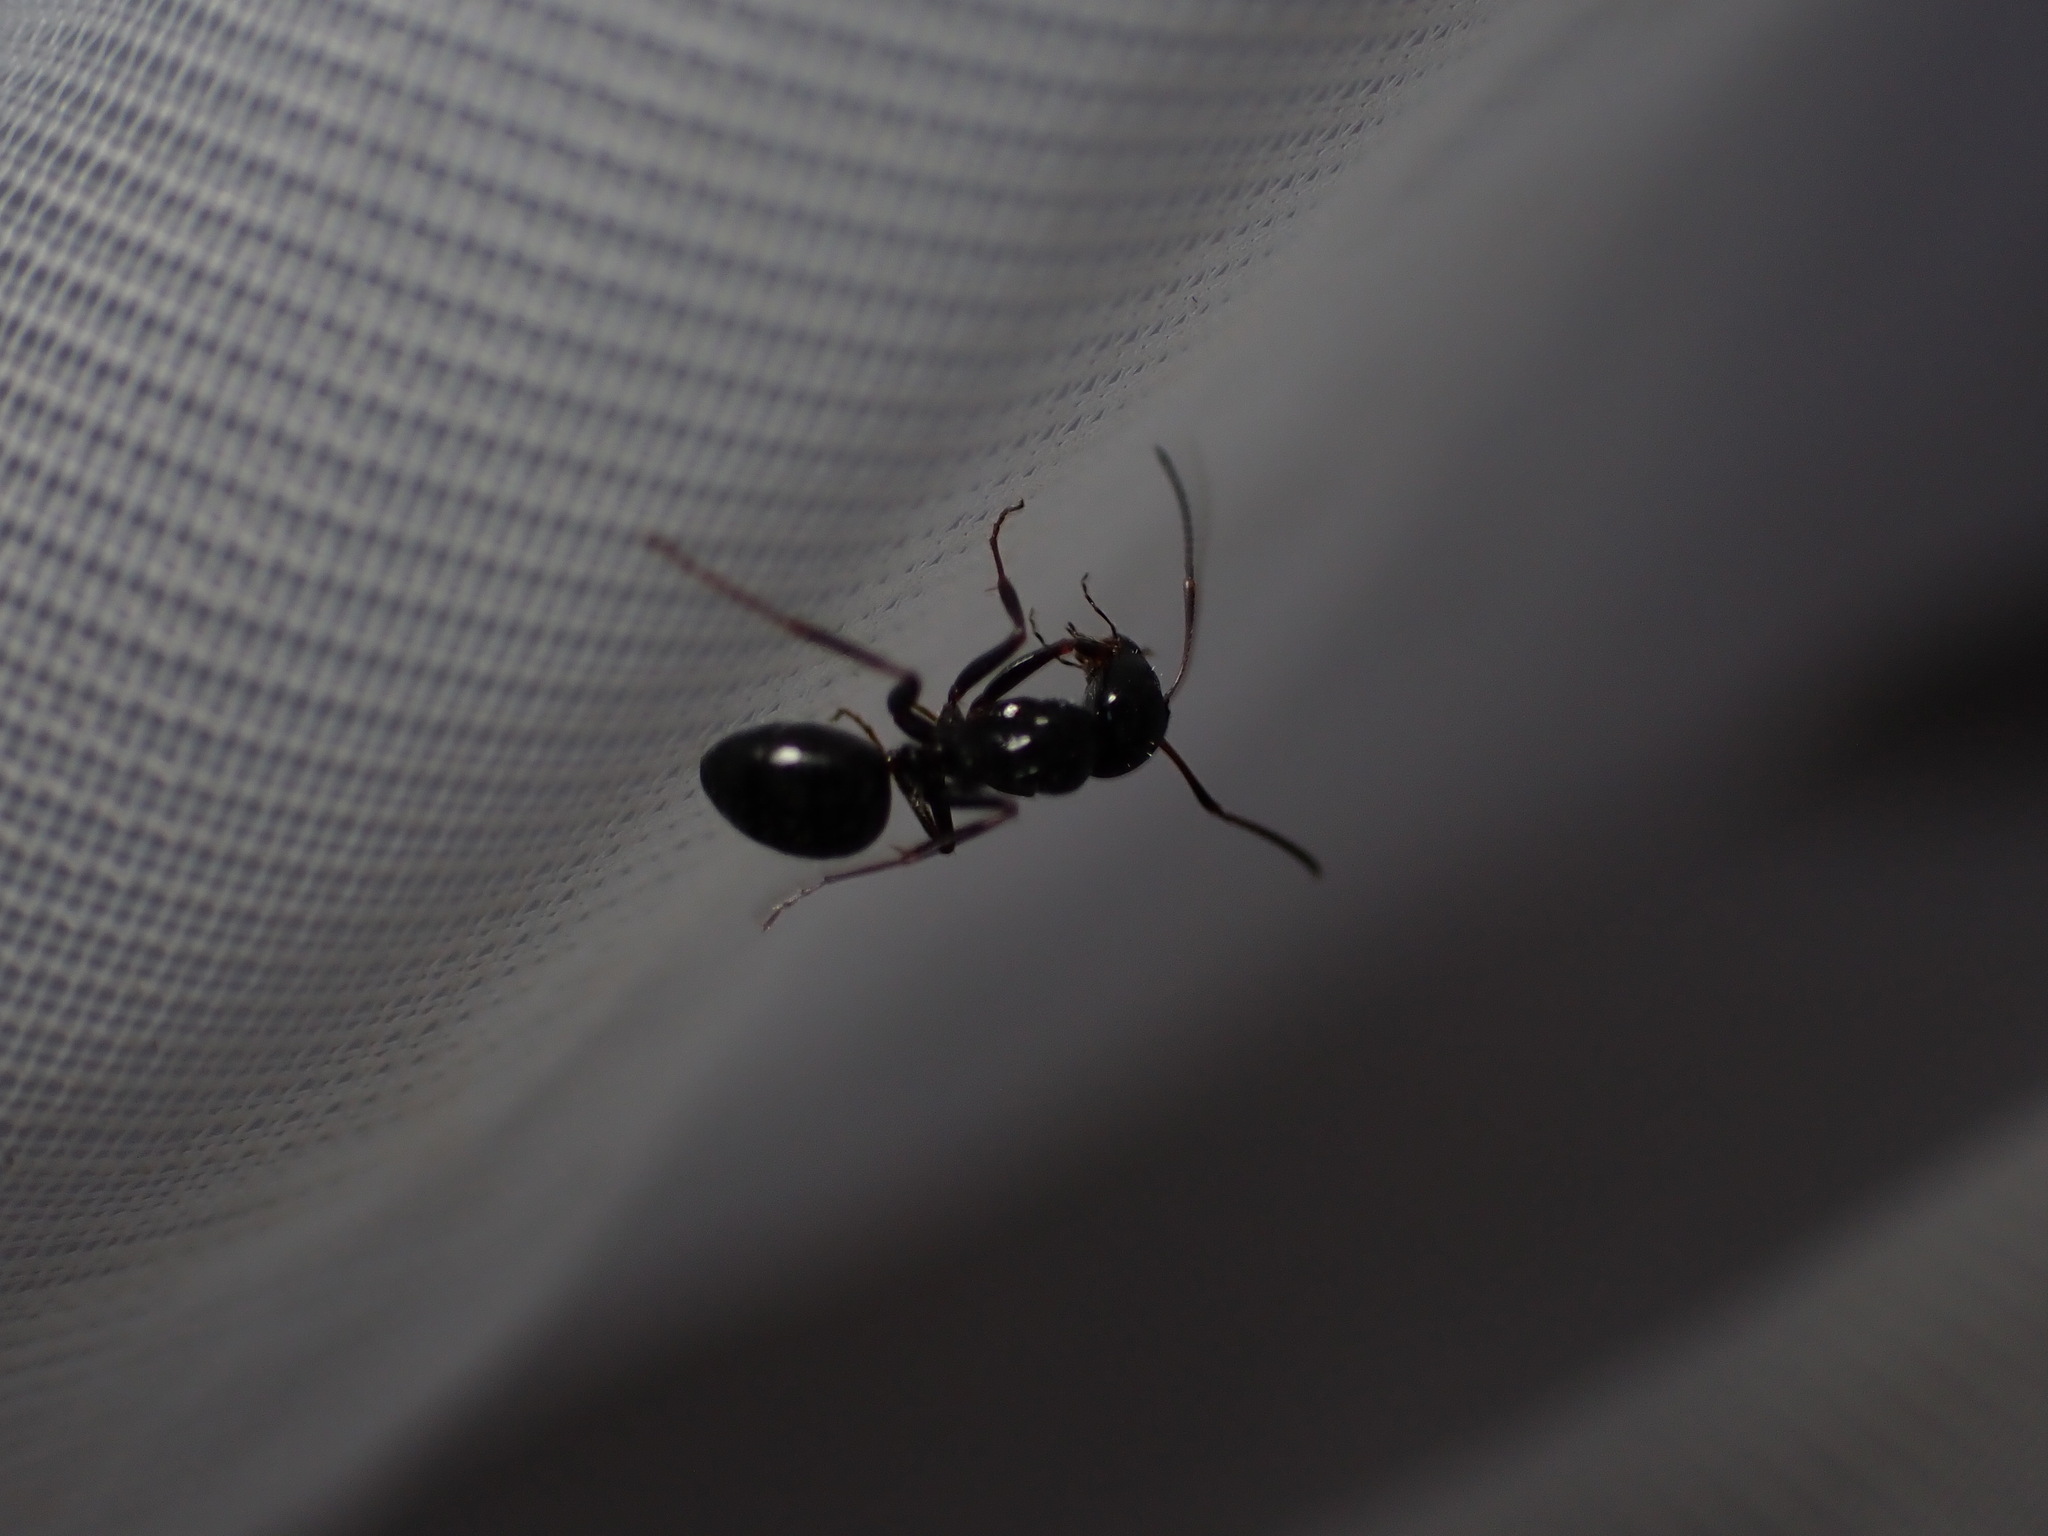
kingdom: Animalia
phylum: Arthropoda
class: Insecta
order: Hymenoptera
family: Formicidae
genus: Lasius
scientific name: Lasius fuliginosus
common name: Jet ant
